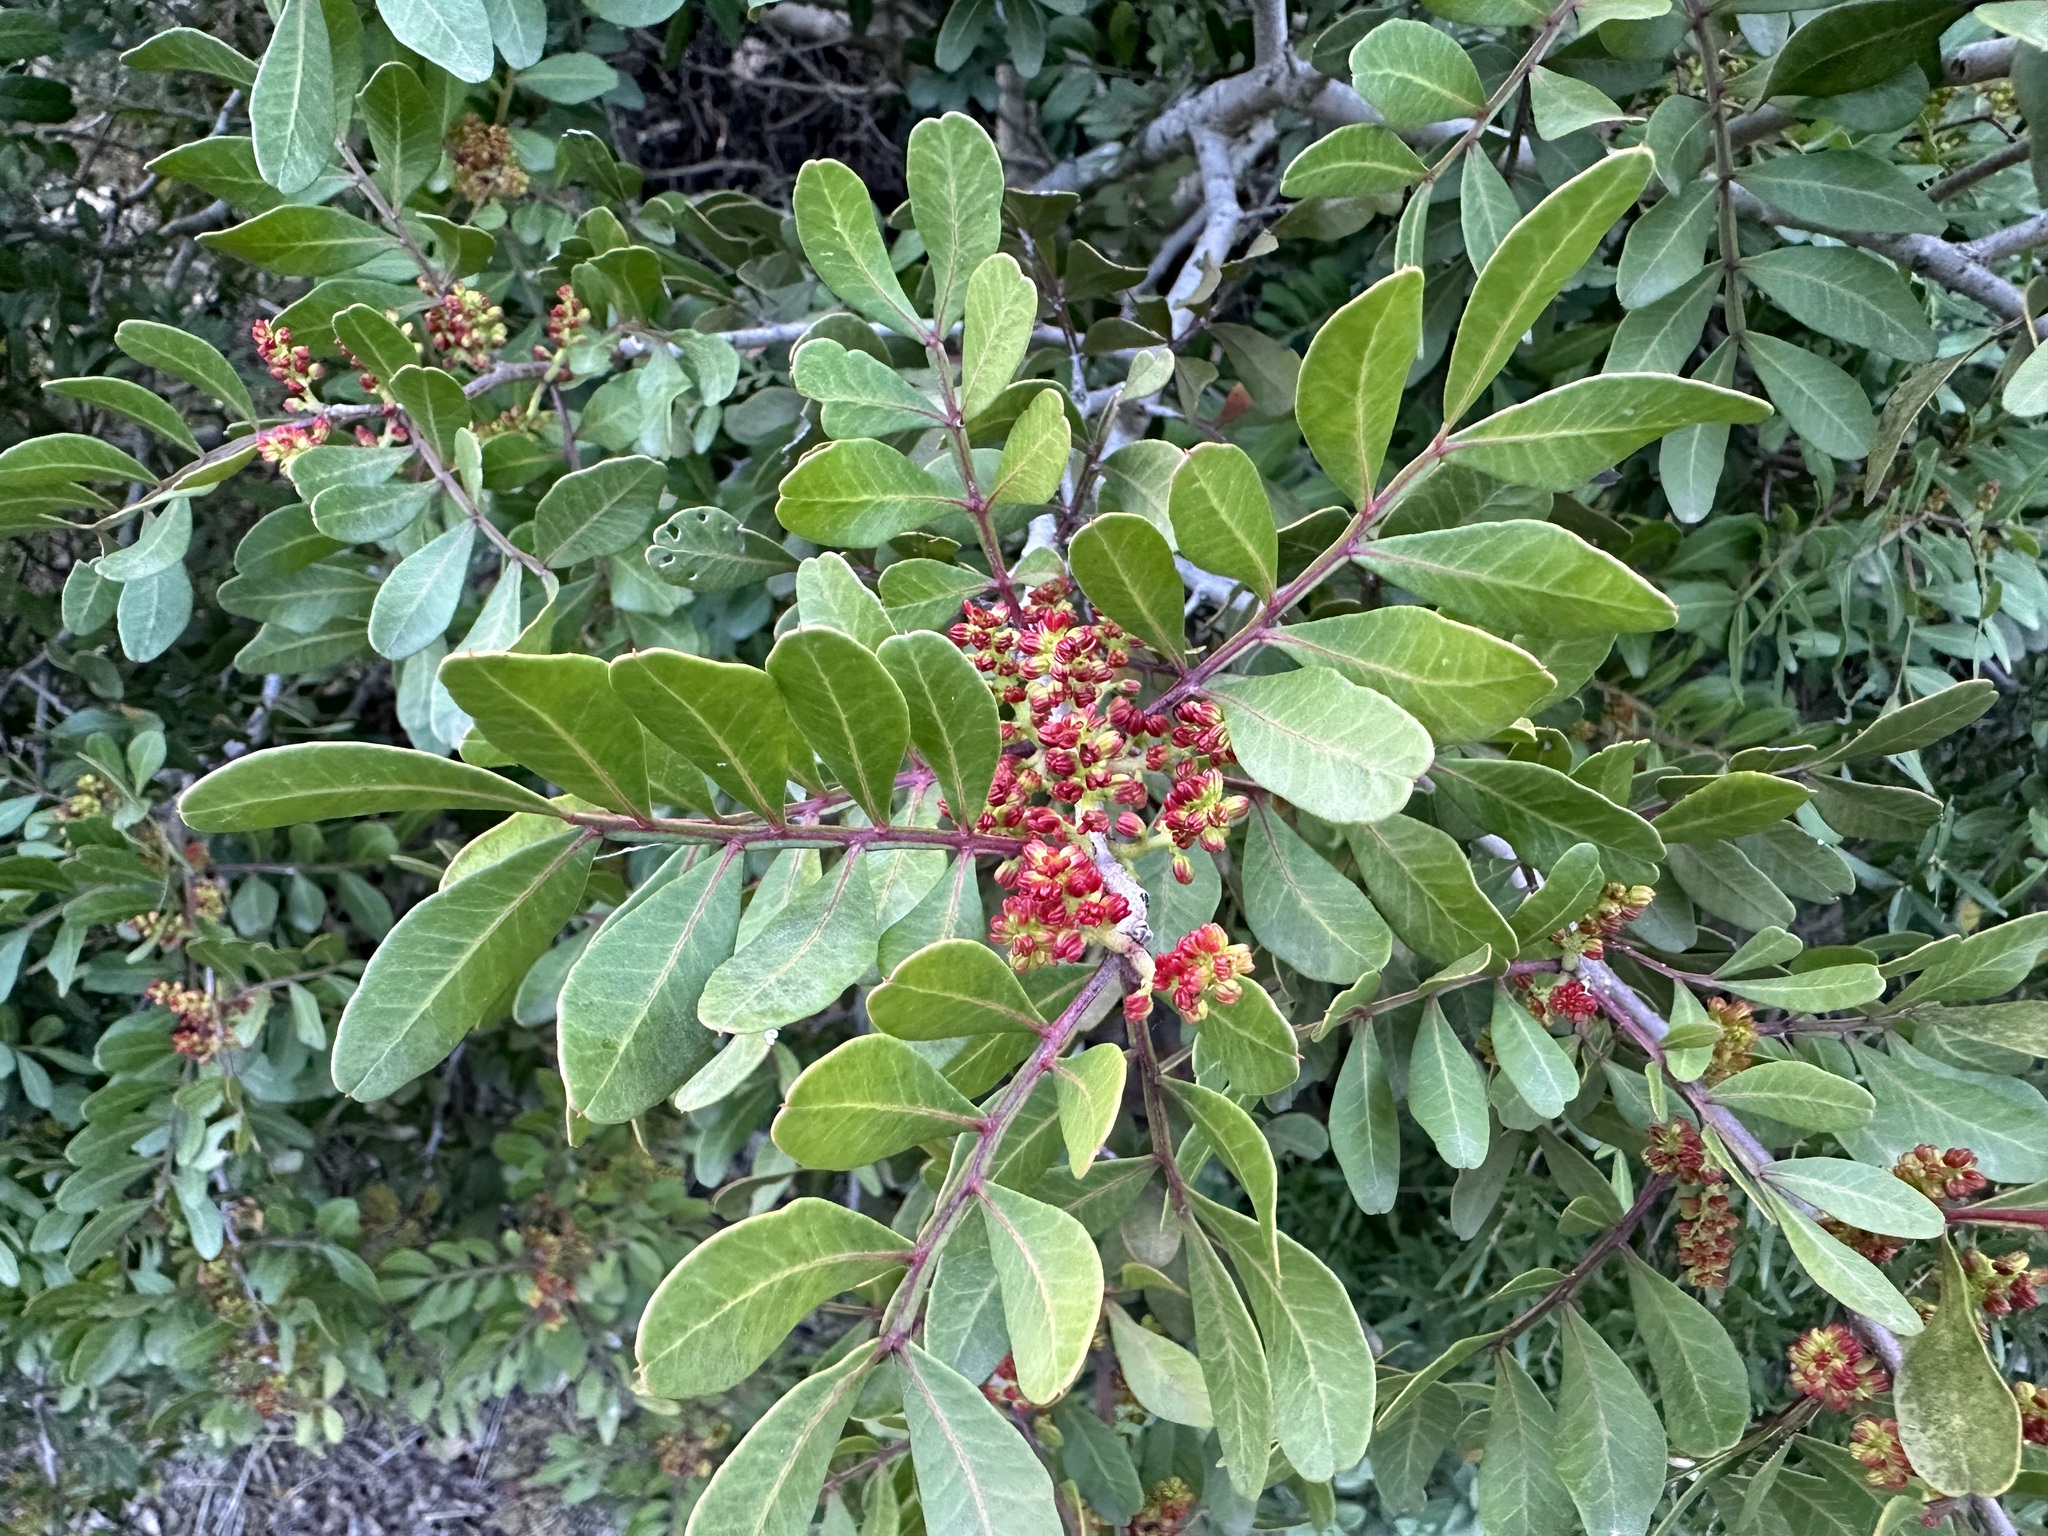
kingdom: Plantae
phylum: Tracheophyta
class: Magnoliopsida
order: Sapindales
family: Anacardiaceae
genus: Pistacia
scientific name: Pistacia lentiscus
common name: Lentisk
